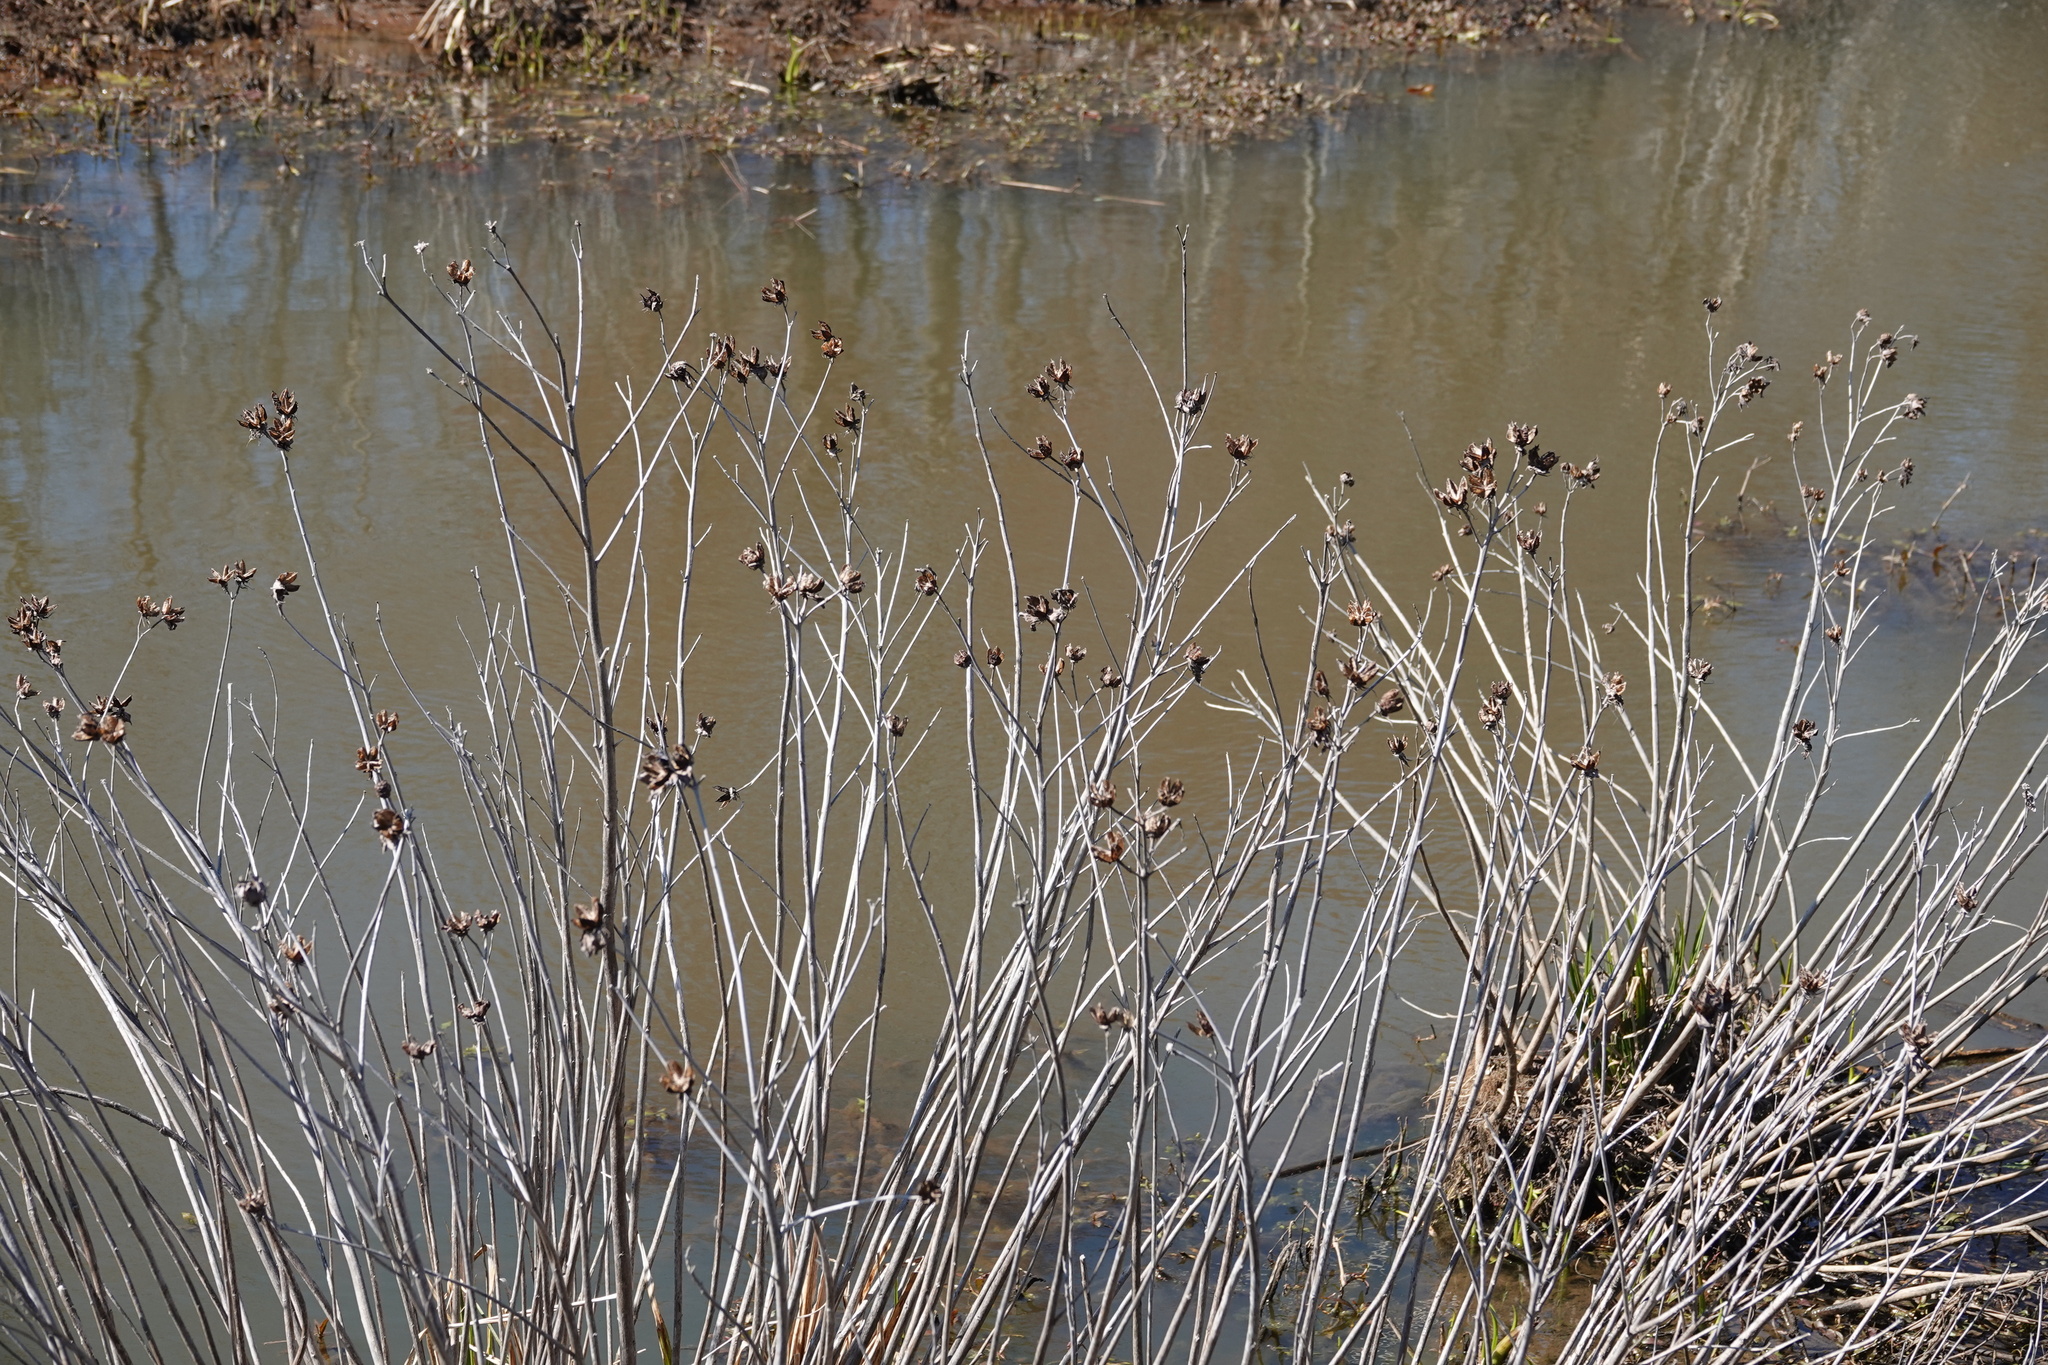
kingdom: Plantae
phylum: Tracheophyta
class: Magnoliopsida
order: Malvales
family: Malvaceae
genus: Hibiscus
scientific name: Hibiscus moscheutos
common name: Common rose-mallow
